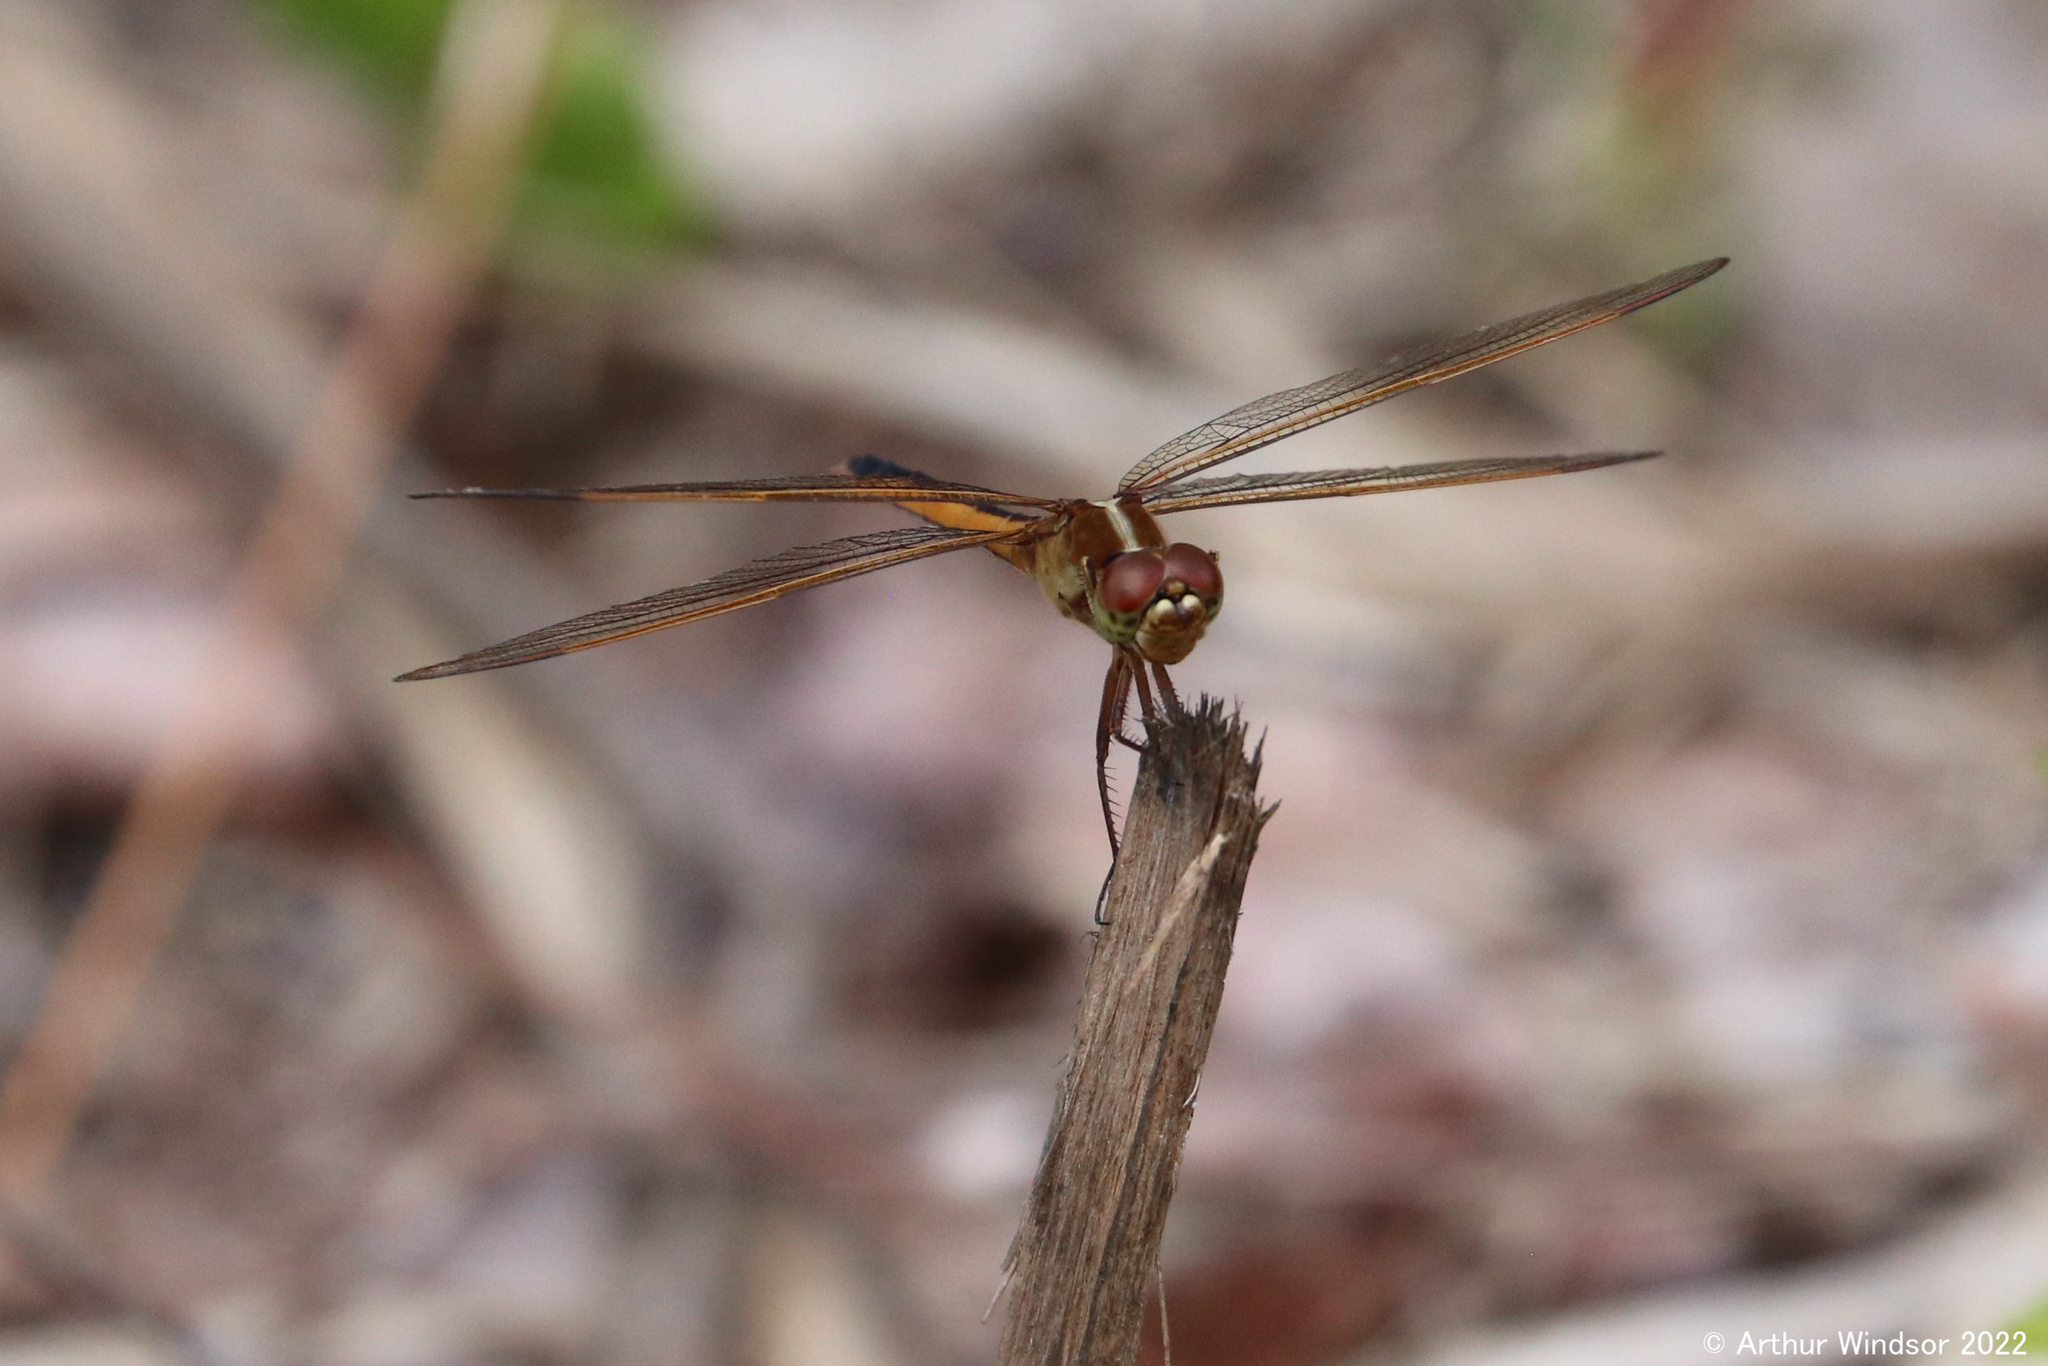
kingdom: Animalia
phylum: Arthropoda
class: Insecta
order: Odonata
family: Libellulidae
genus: Libellula
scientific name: Libellula needhami
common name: Needham's skimmer
